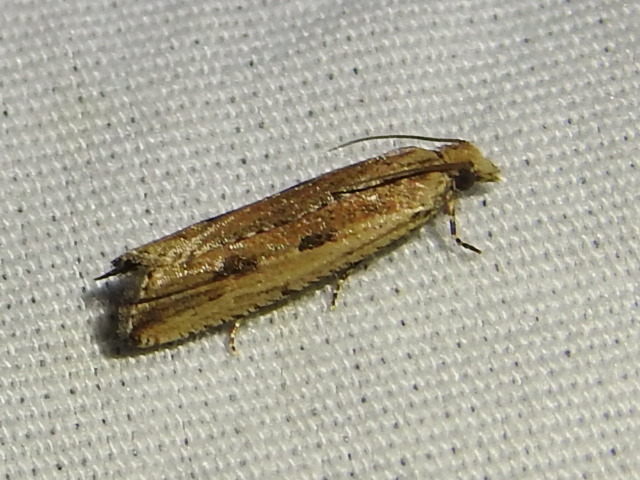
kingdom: Animalia
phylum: Arthropoda
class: Insecta
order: Lepidoptera
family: Tortricidae
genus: Bactra
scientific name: Bactra verutana
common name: Javelin moth
